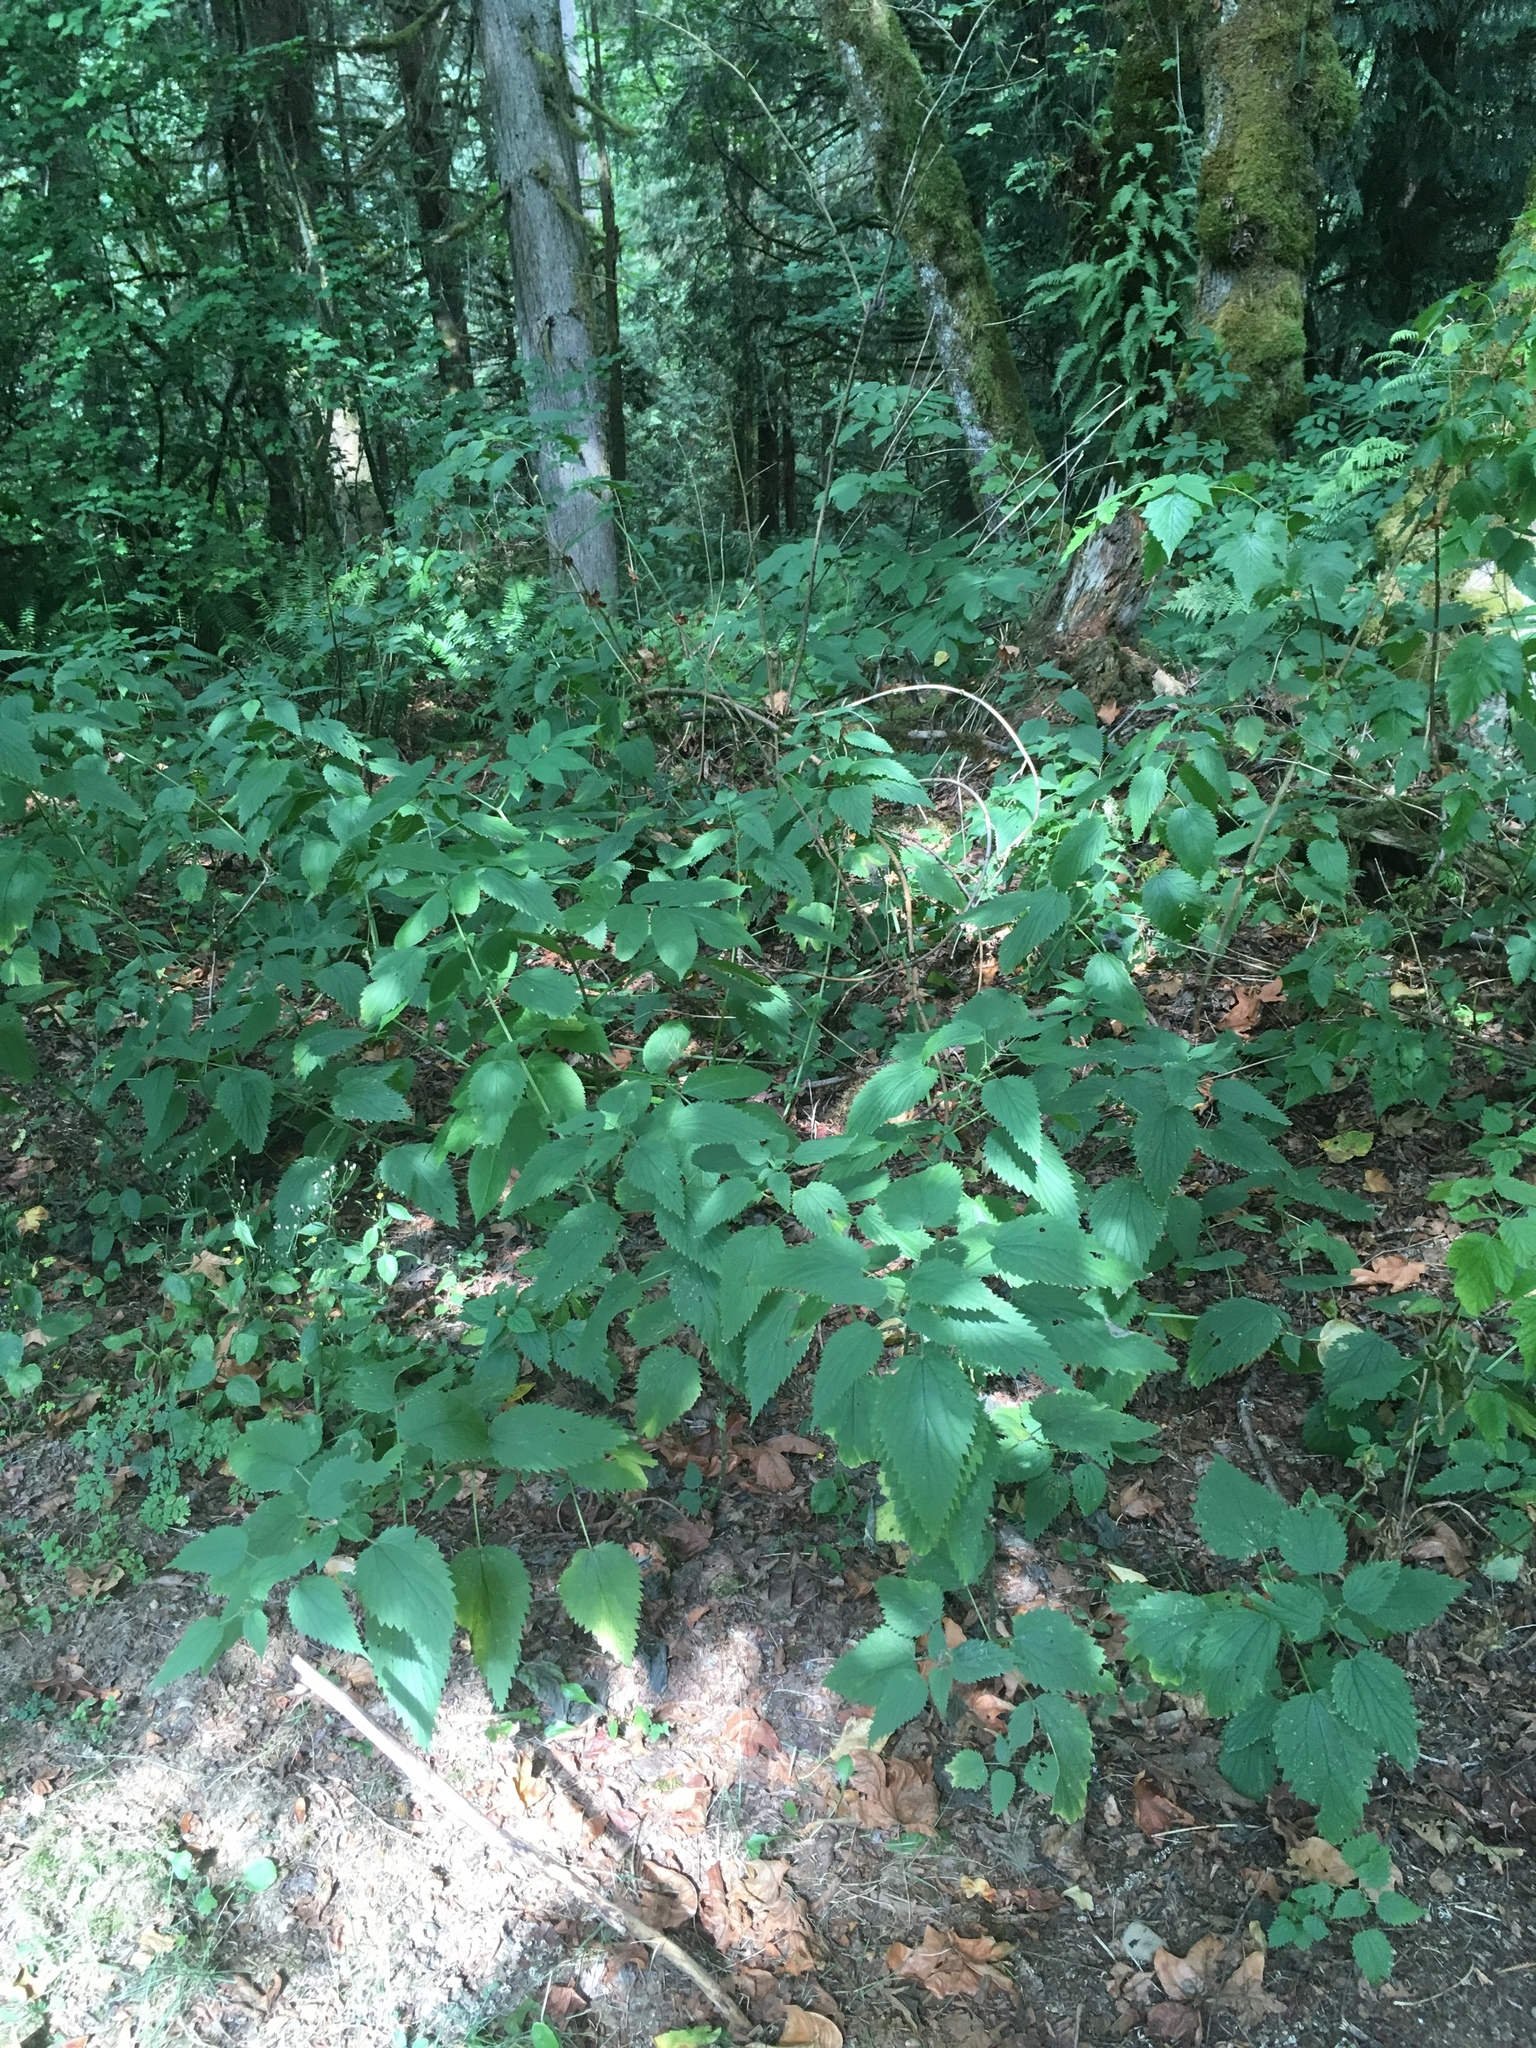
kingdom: Plantae
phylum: Tracheophyta
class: Magnoliopsida
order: Rosales
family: Urticaceae
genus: Urtica
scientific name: Urtica gracilis
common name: Slender stinging nettle
